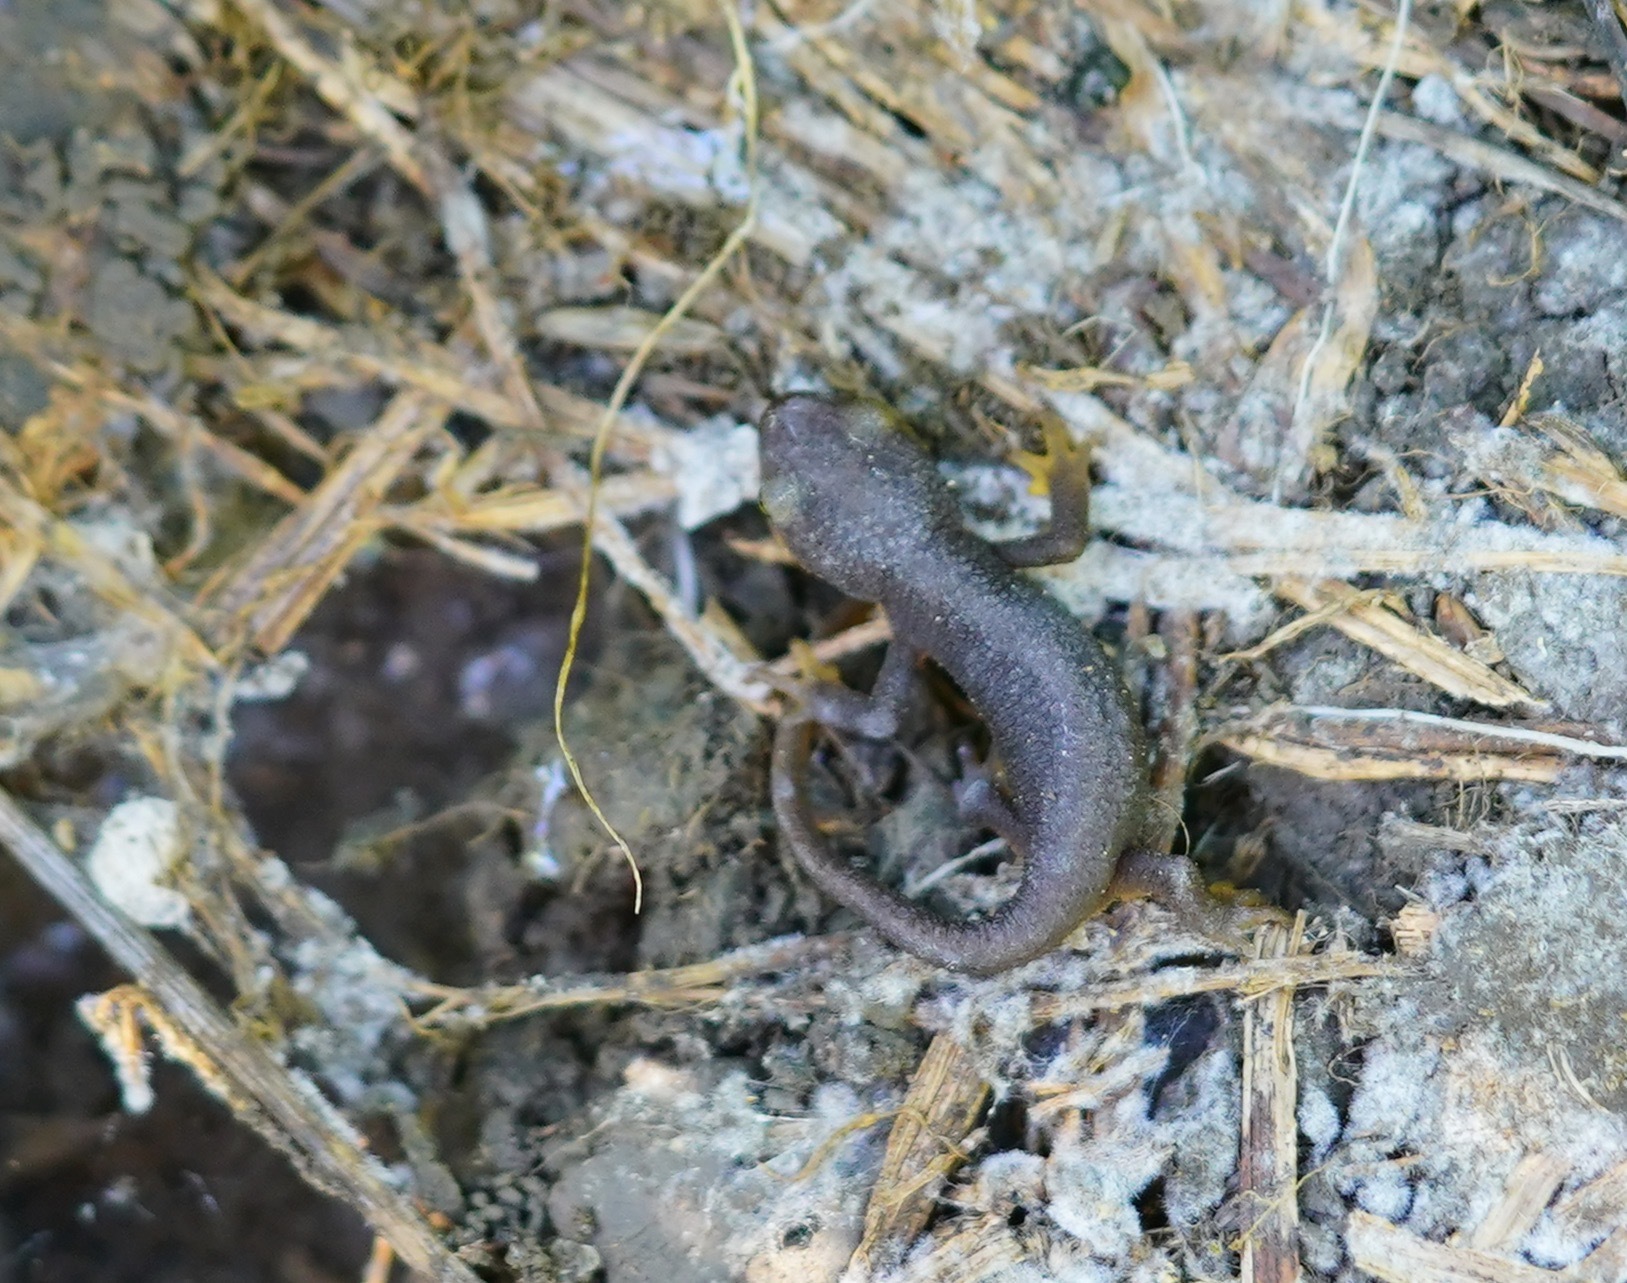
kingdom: Animalia
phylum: Chordata
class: Amphibia
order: Caudata
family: Salamandridae
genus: Taricha
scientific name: Taricha torosa
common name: California newt
